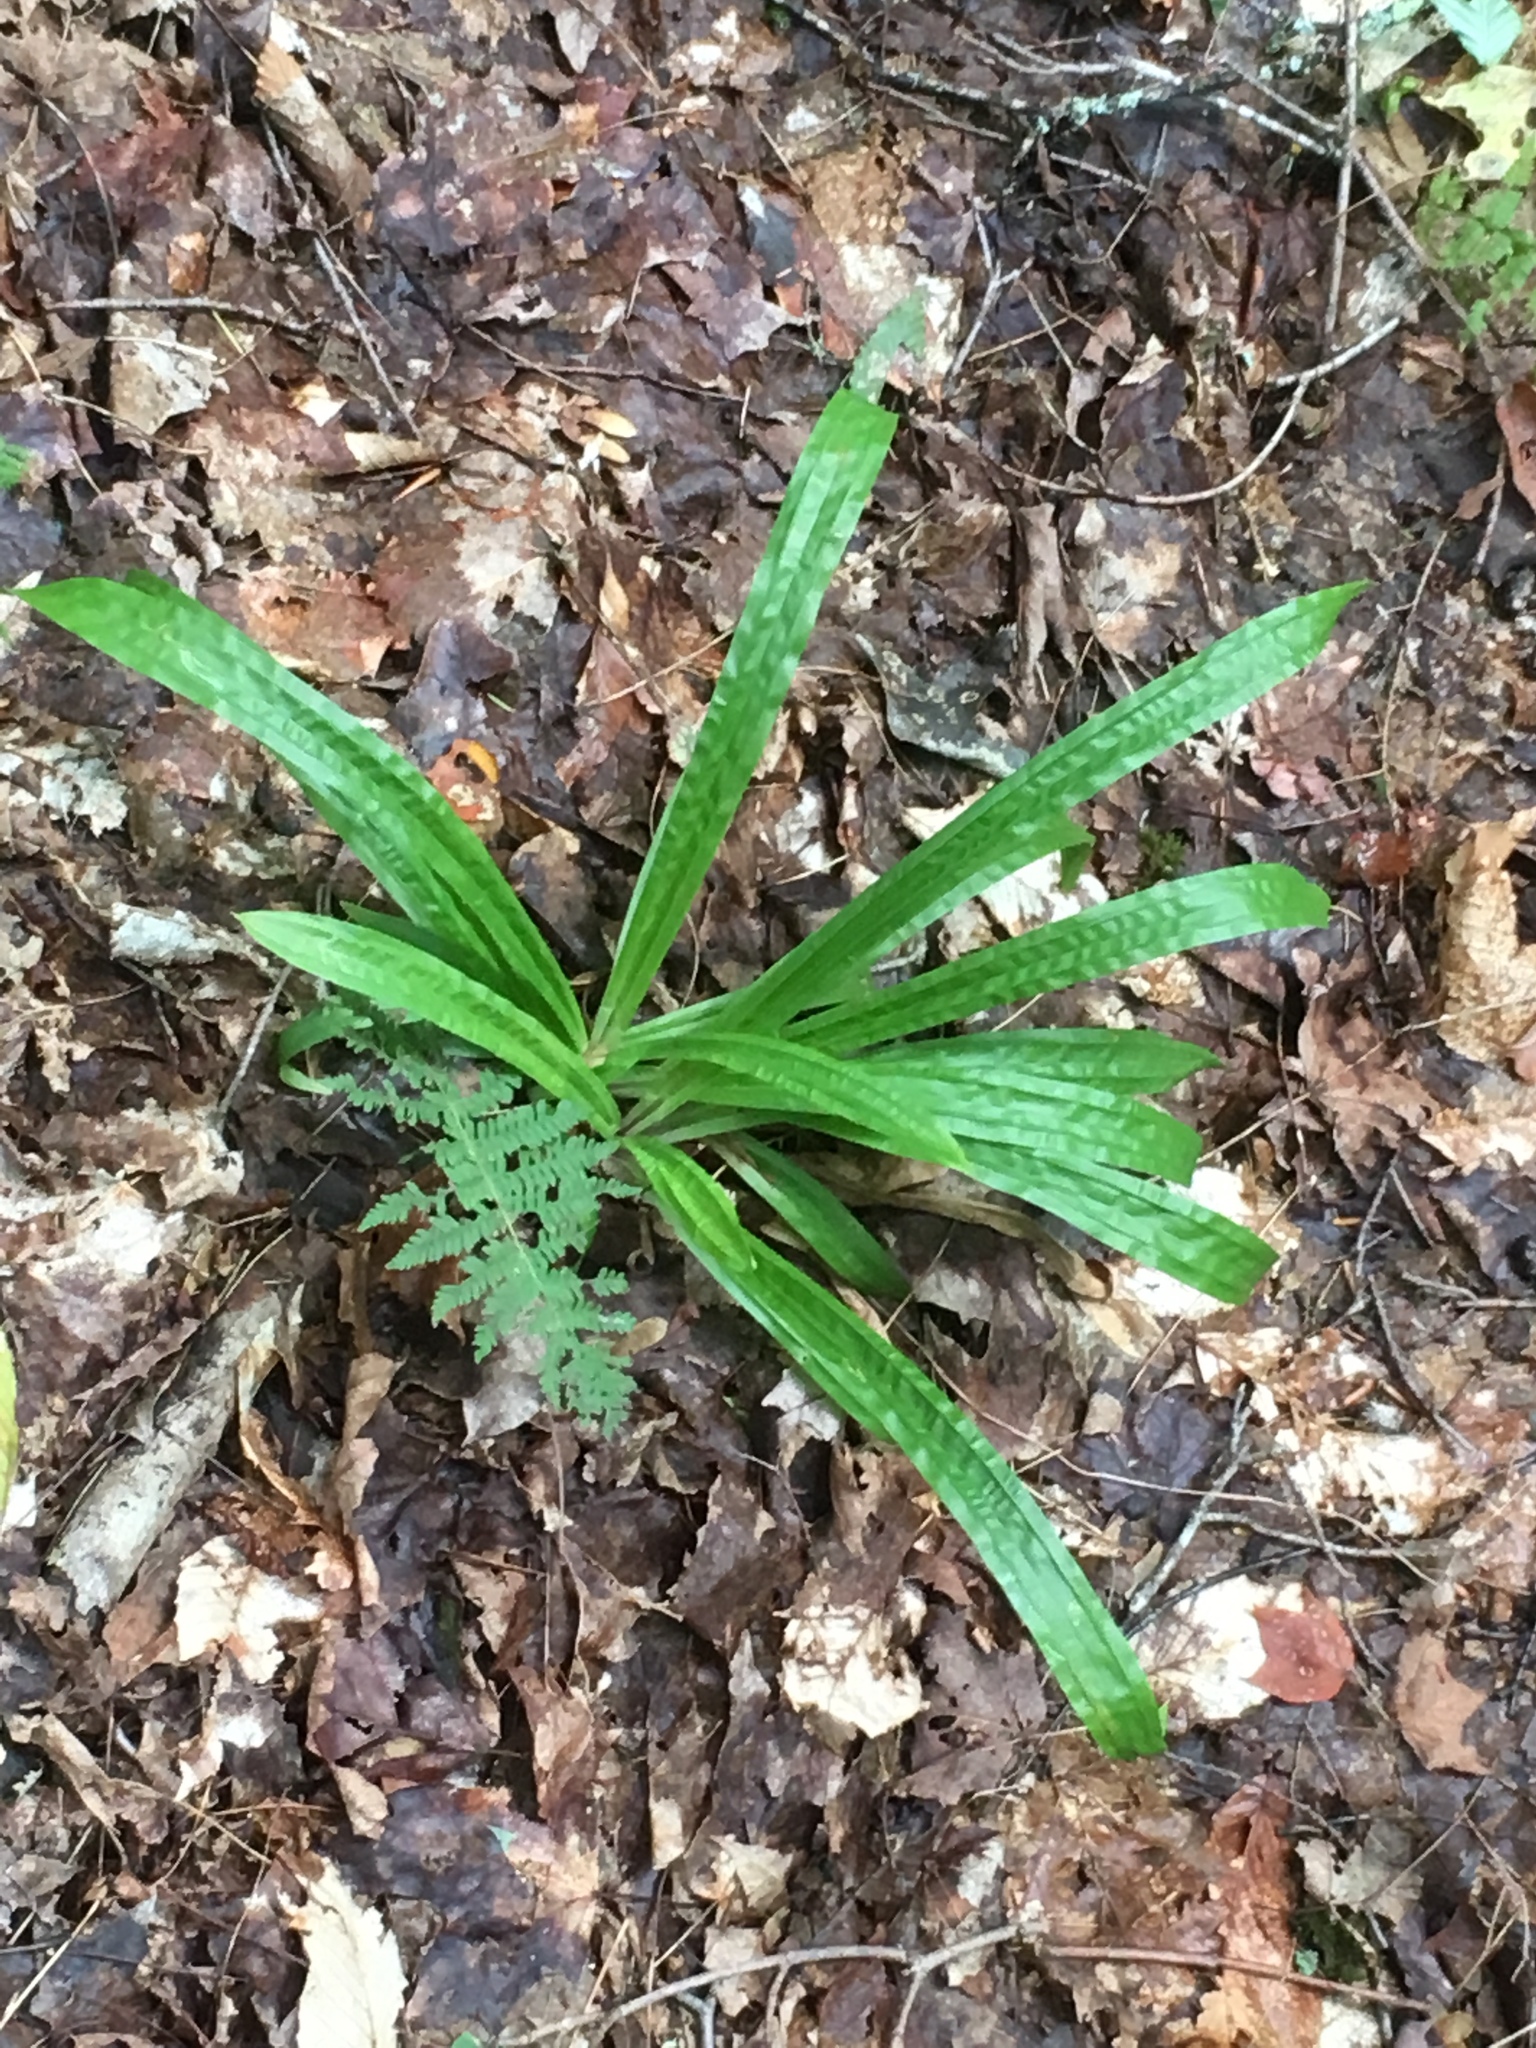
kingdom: Plantae
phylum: Tracheophyta
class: Liliopsida
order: Poales
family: Cyperaceae
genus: Carex
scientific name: Carex plantaginea
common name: Plantain-leaved sedge
